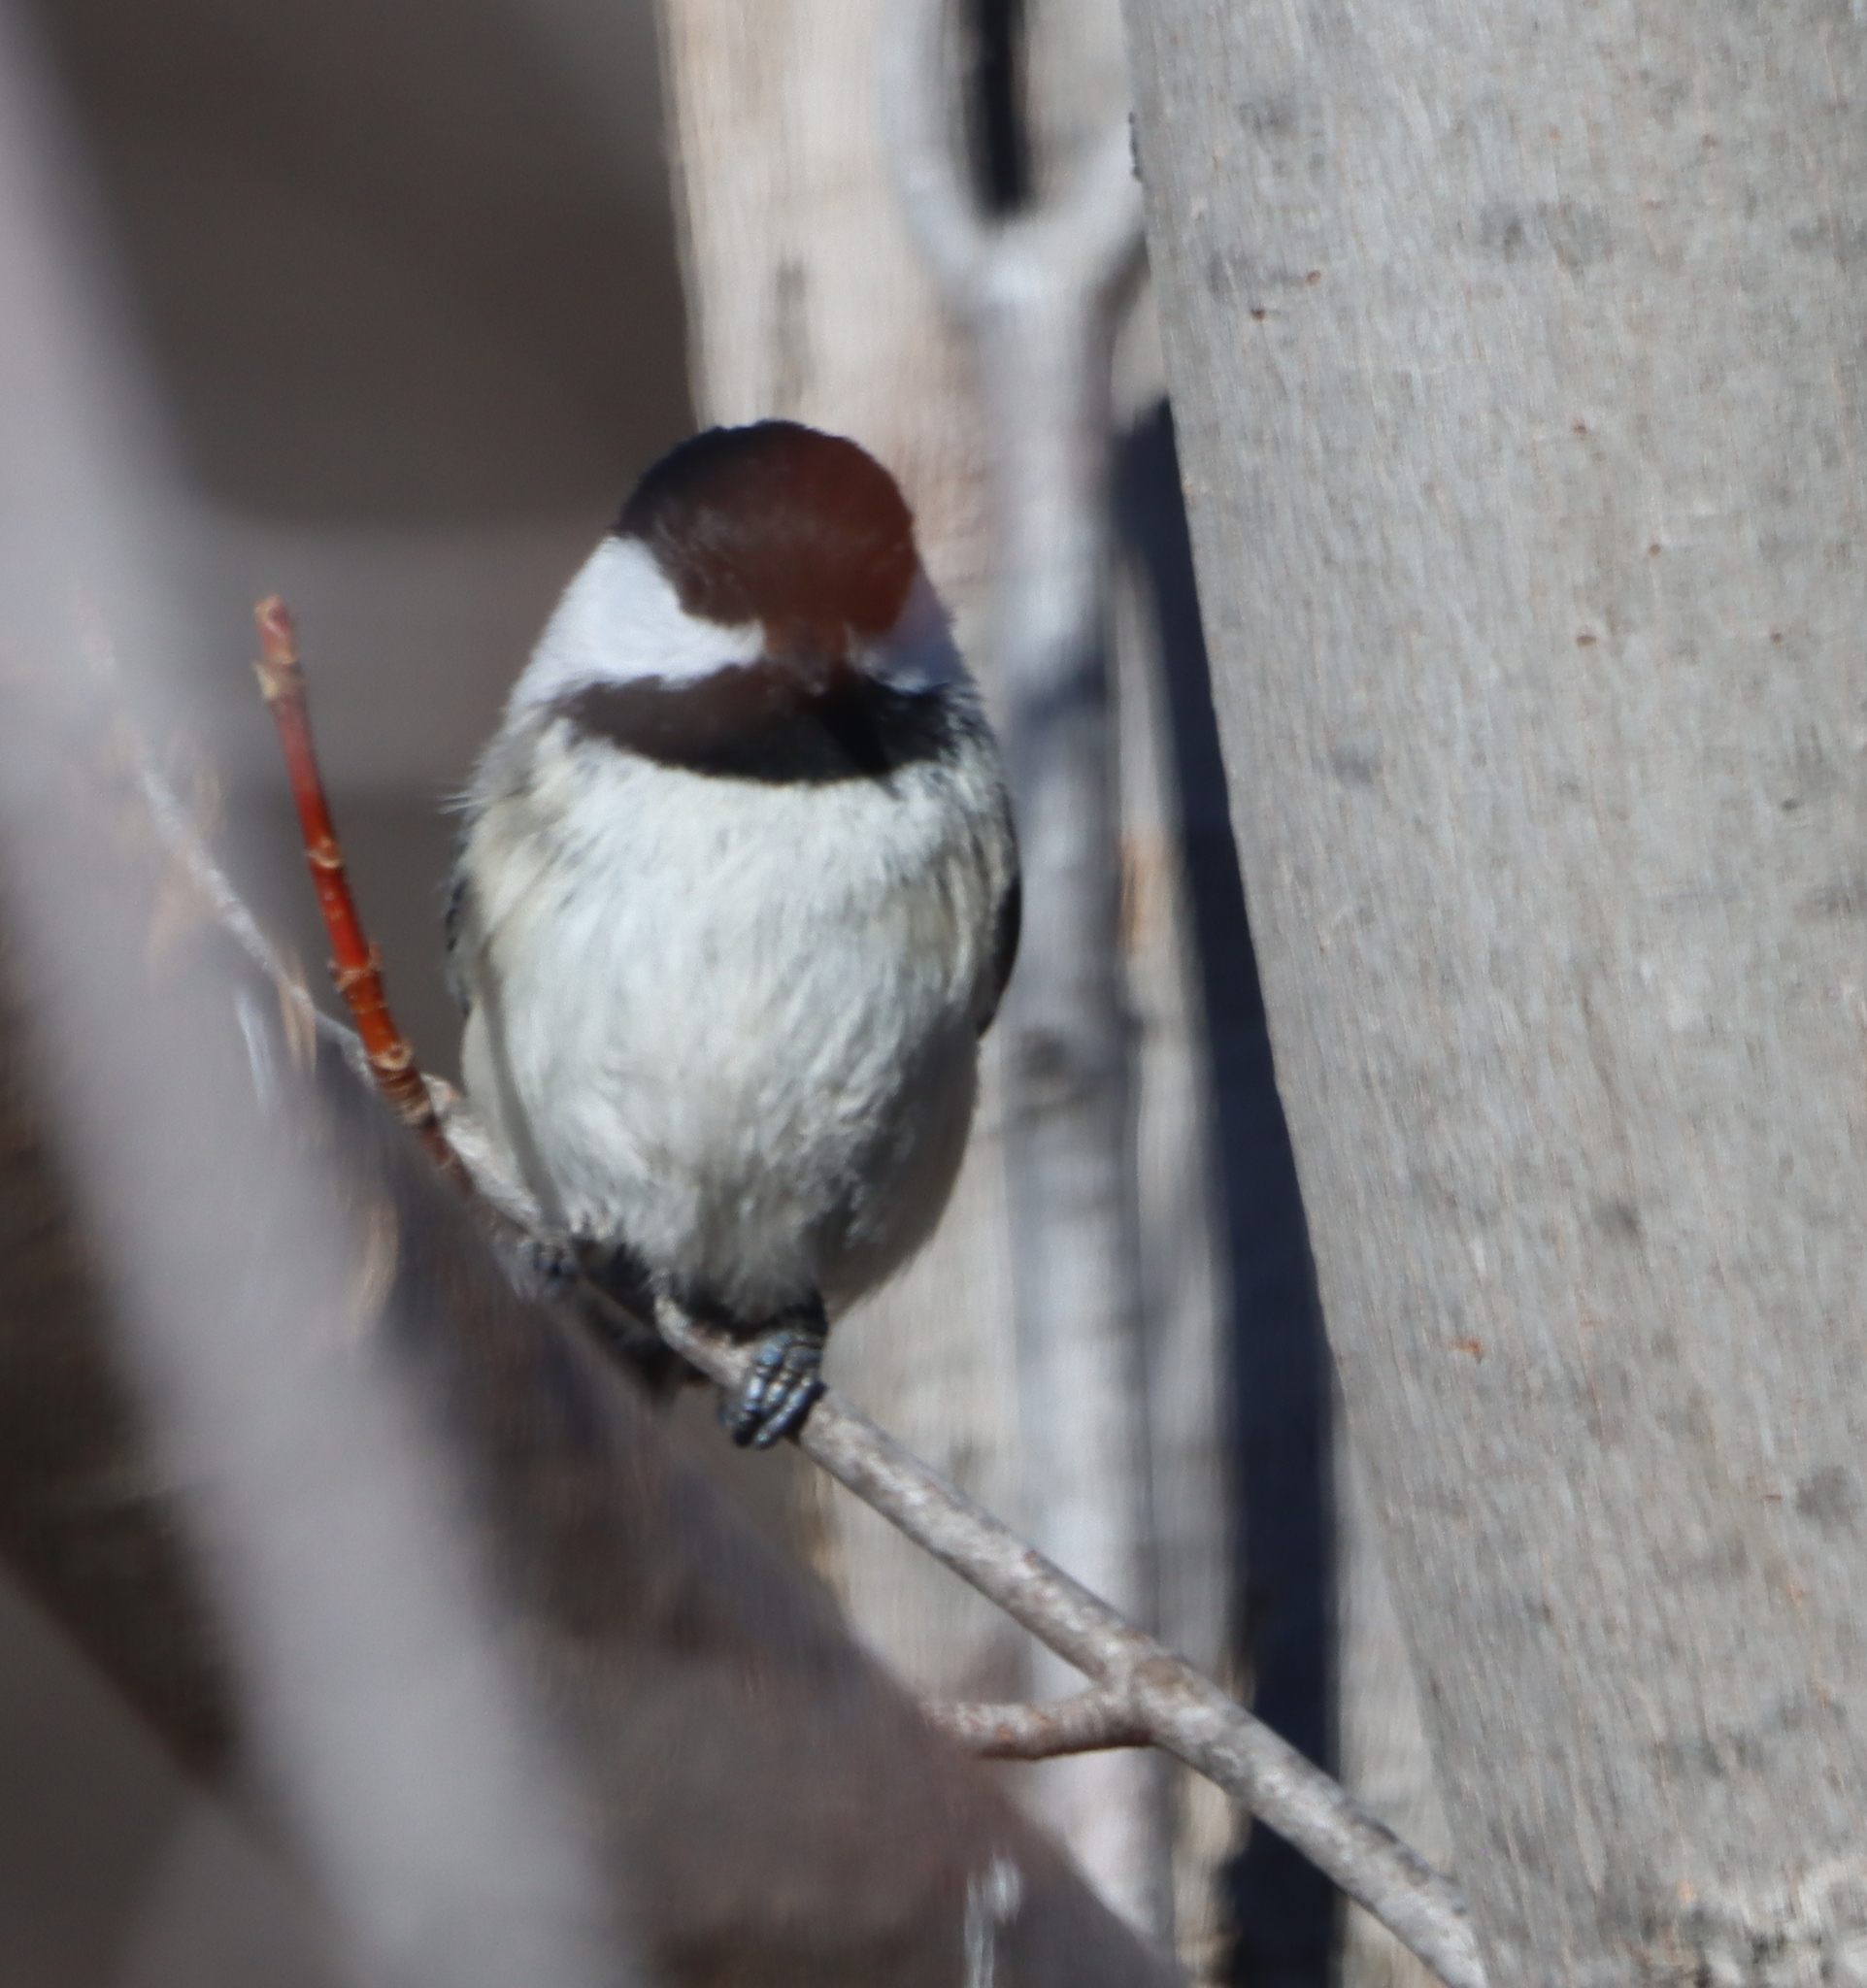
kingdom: Animalia
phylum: Chordata
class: Aves
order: Passeriformes
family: Paridae
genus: Poecile
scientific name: Poecile atricapillus
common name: Black-capped chickadee
